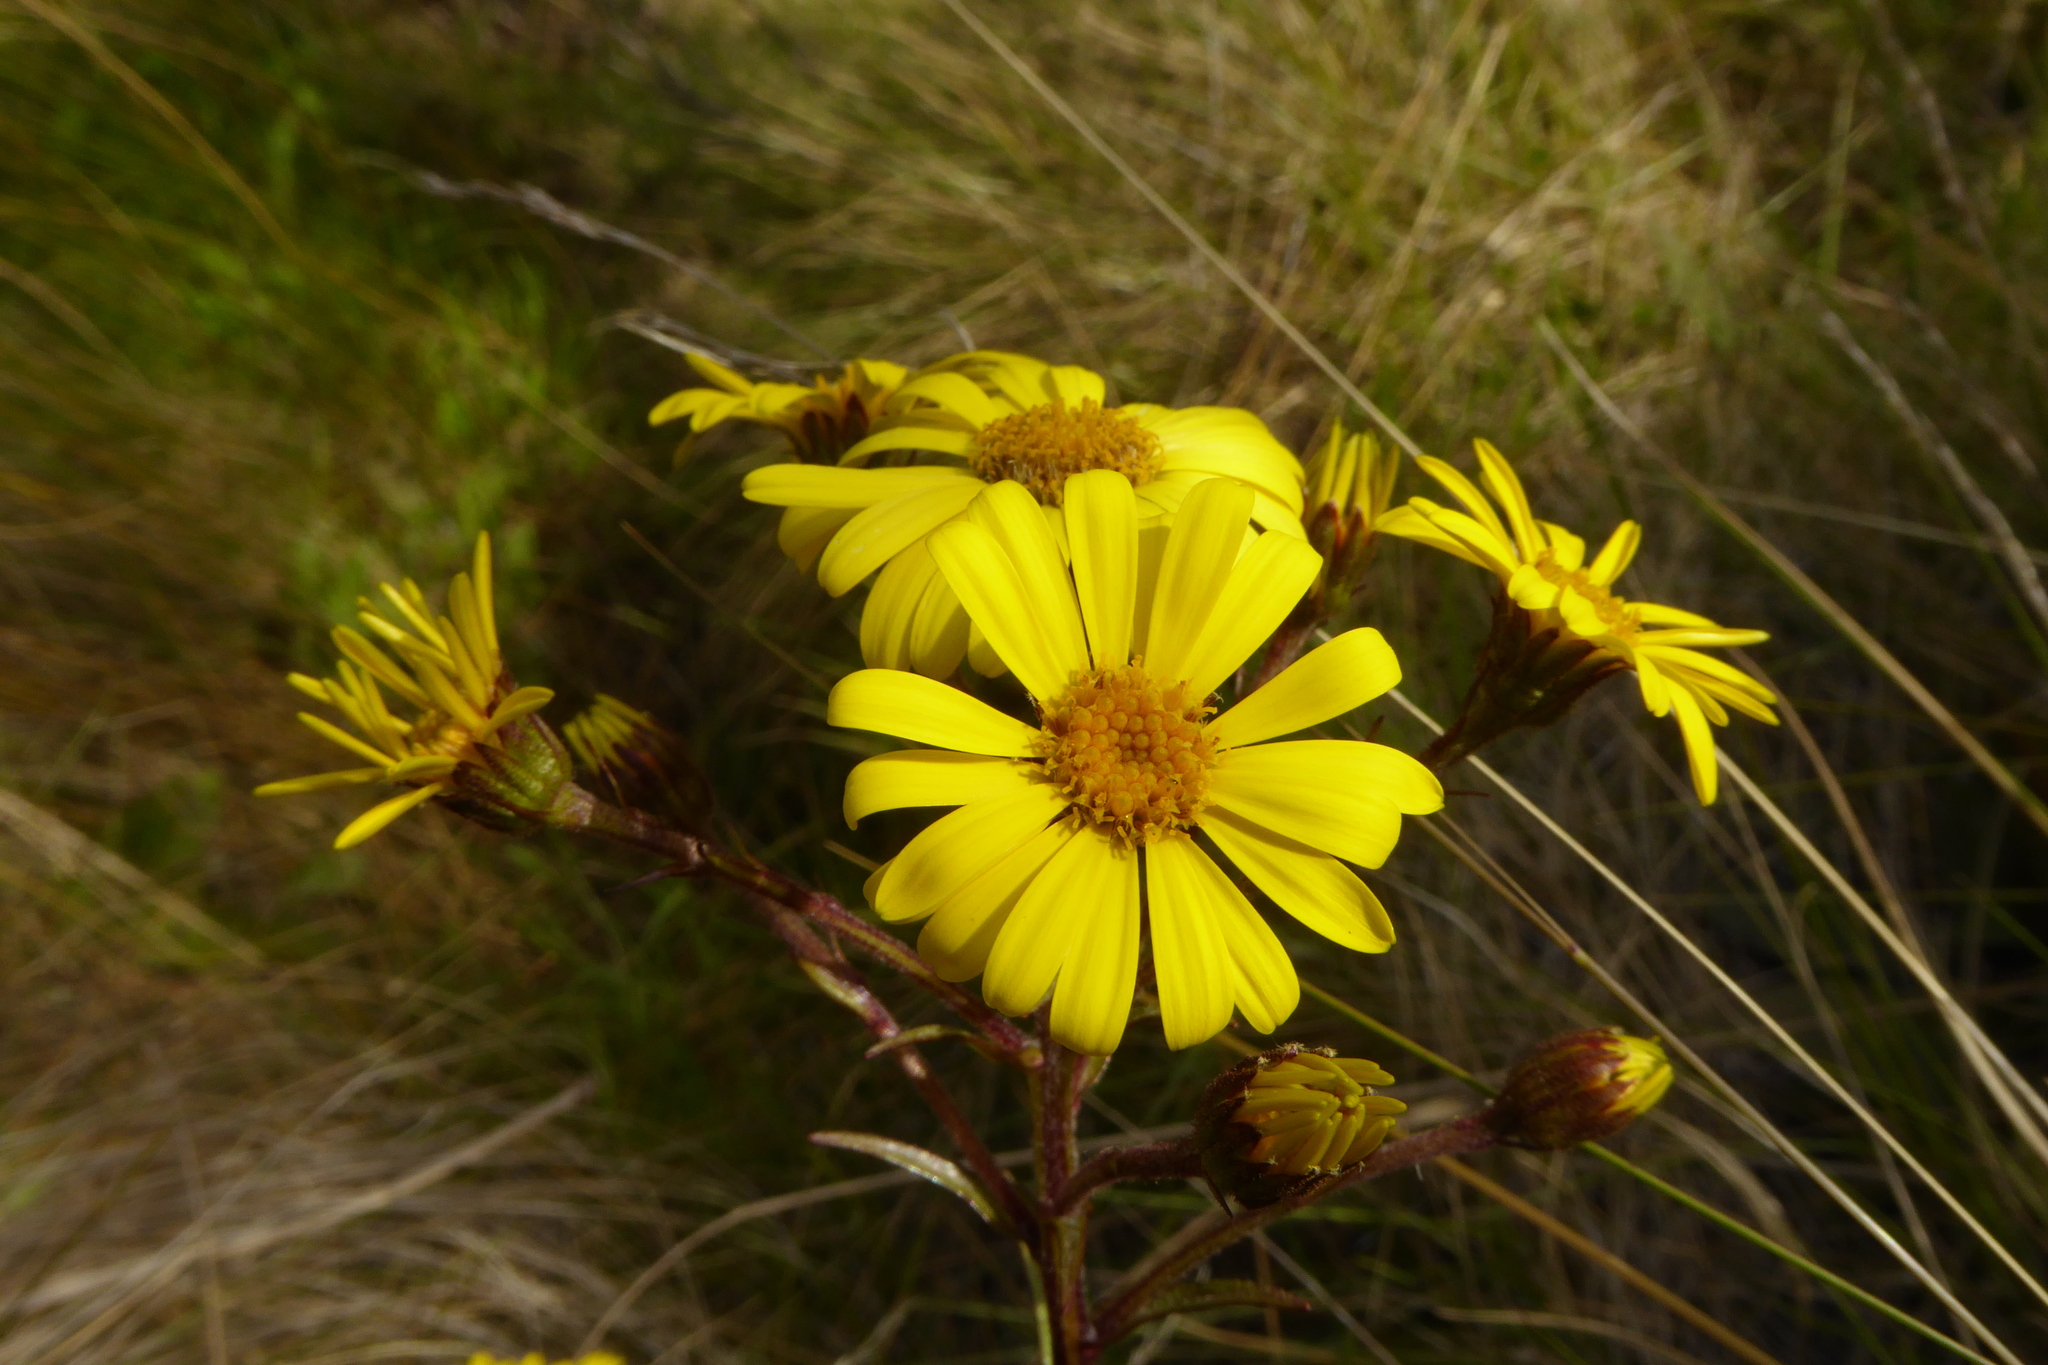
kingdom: Plantae
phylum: Tracheophyta
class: Magnoliopsida
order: Asterales
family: Asteraceae
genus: Dolichoglottis
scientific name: Dolichoglottis lyallii
